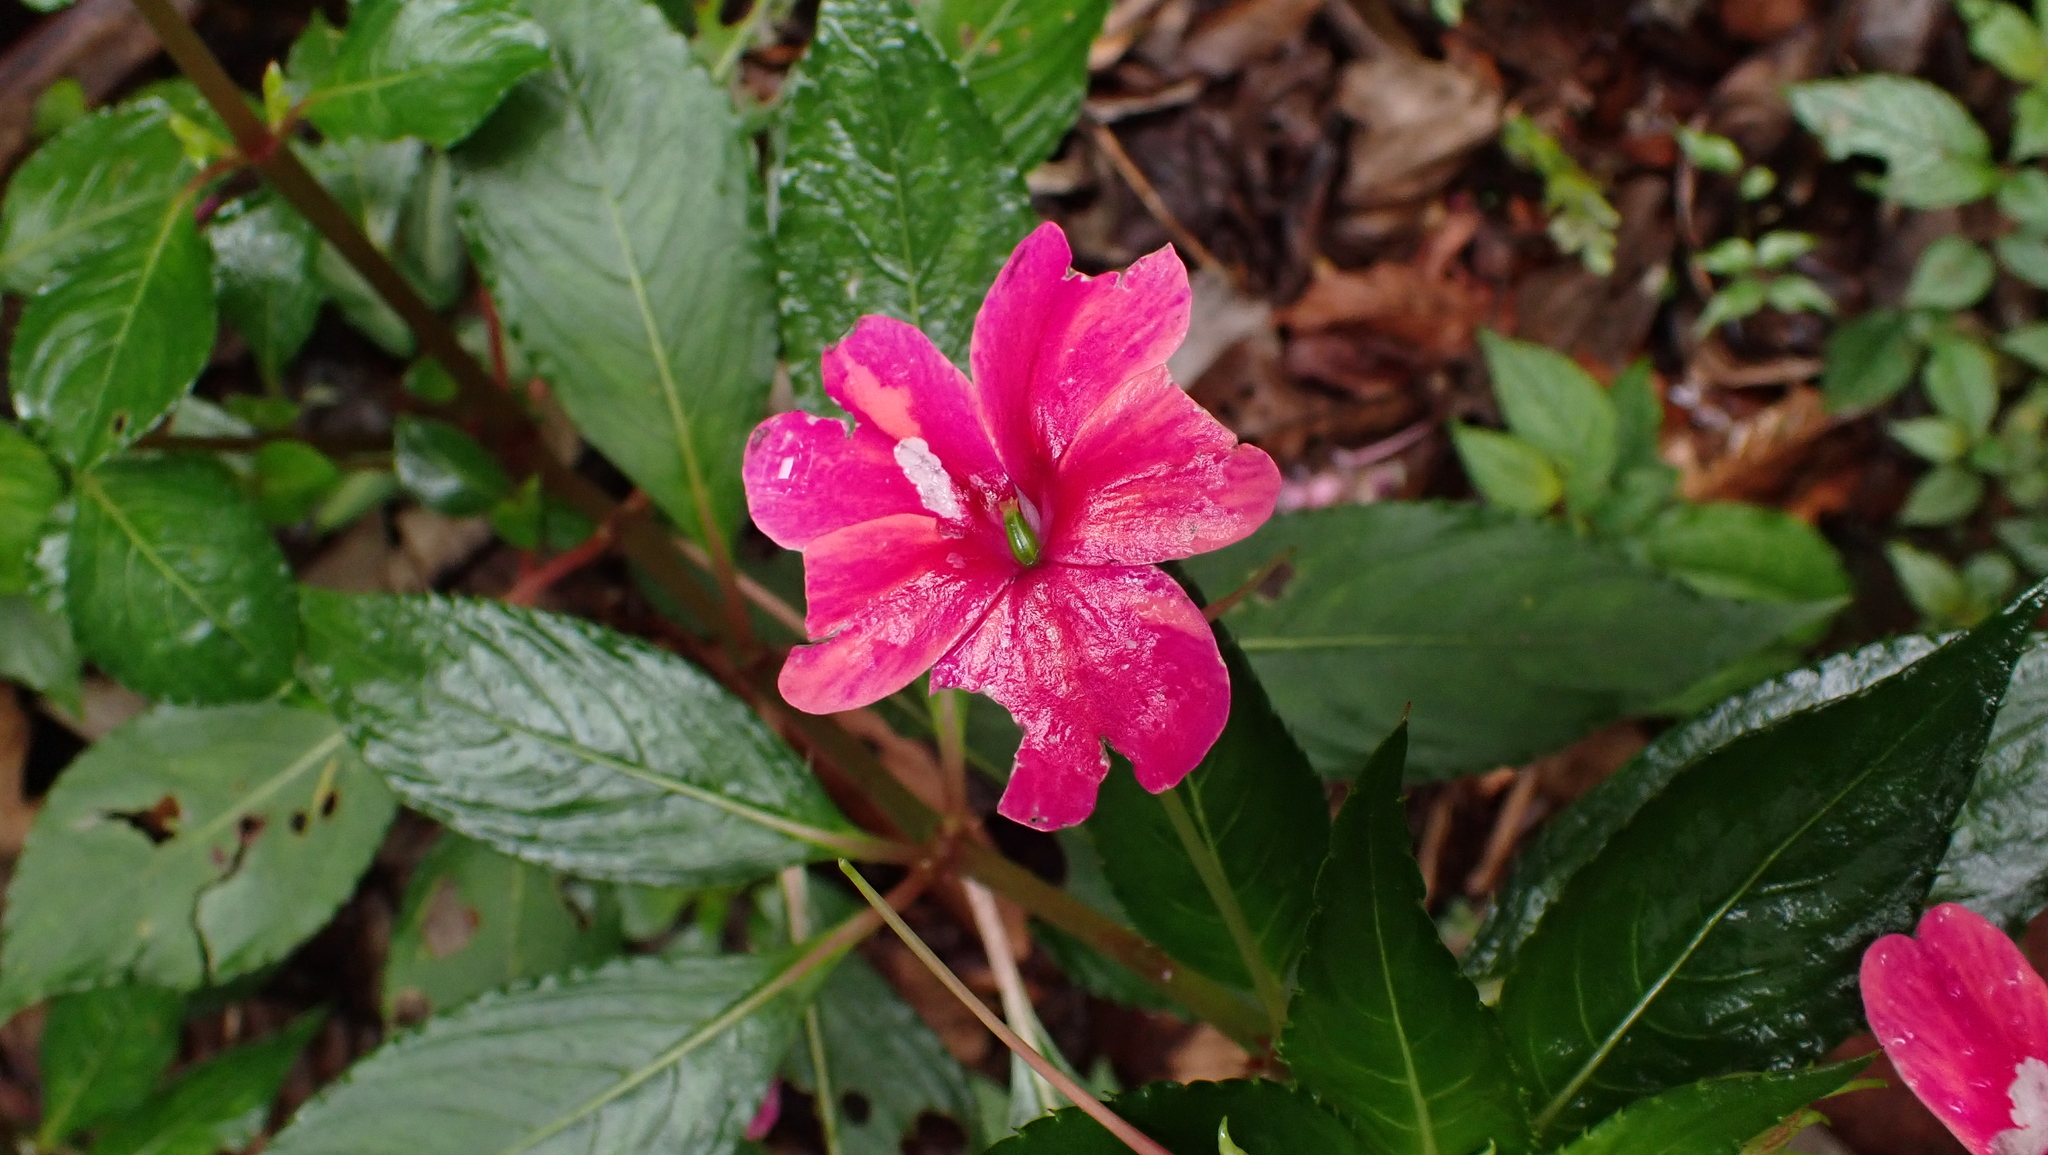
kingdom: Plantae
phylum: Tracheophyta
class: Magnoliopsida
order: Ericales
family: Balsaminaceae
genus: Impatiens
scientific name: Impatiens walleriana
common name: Buzzy lizzy
